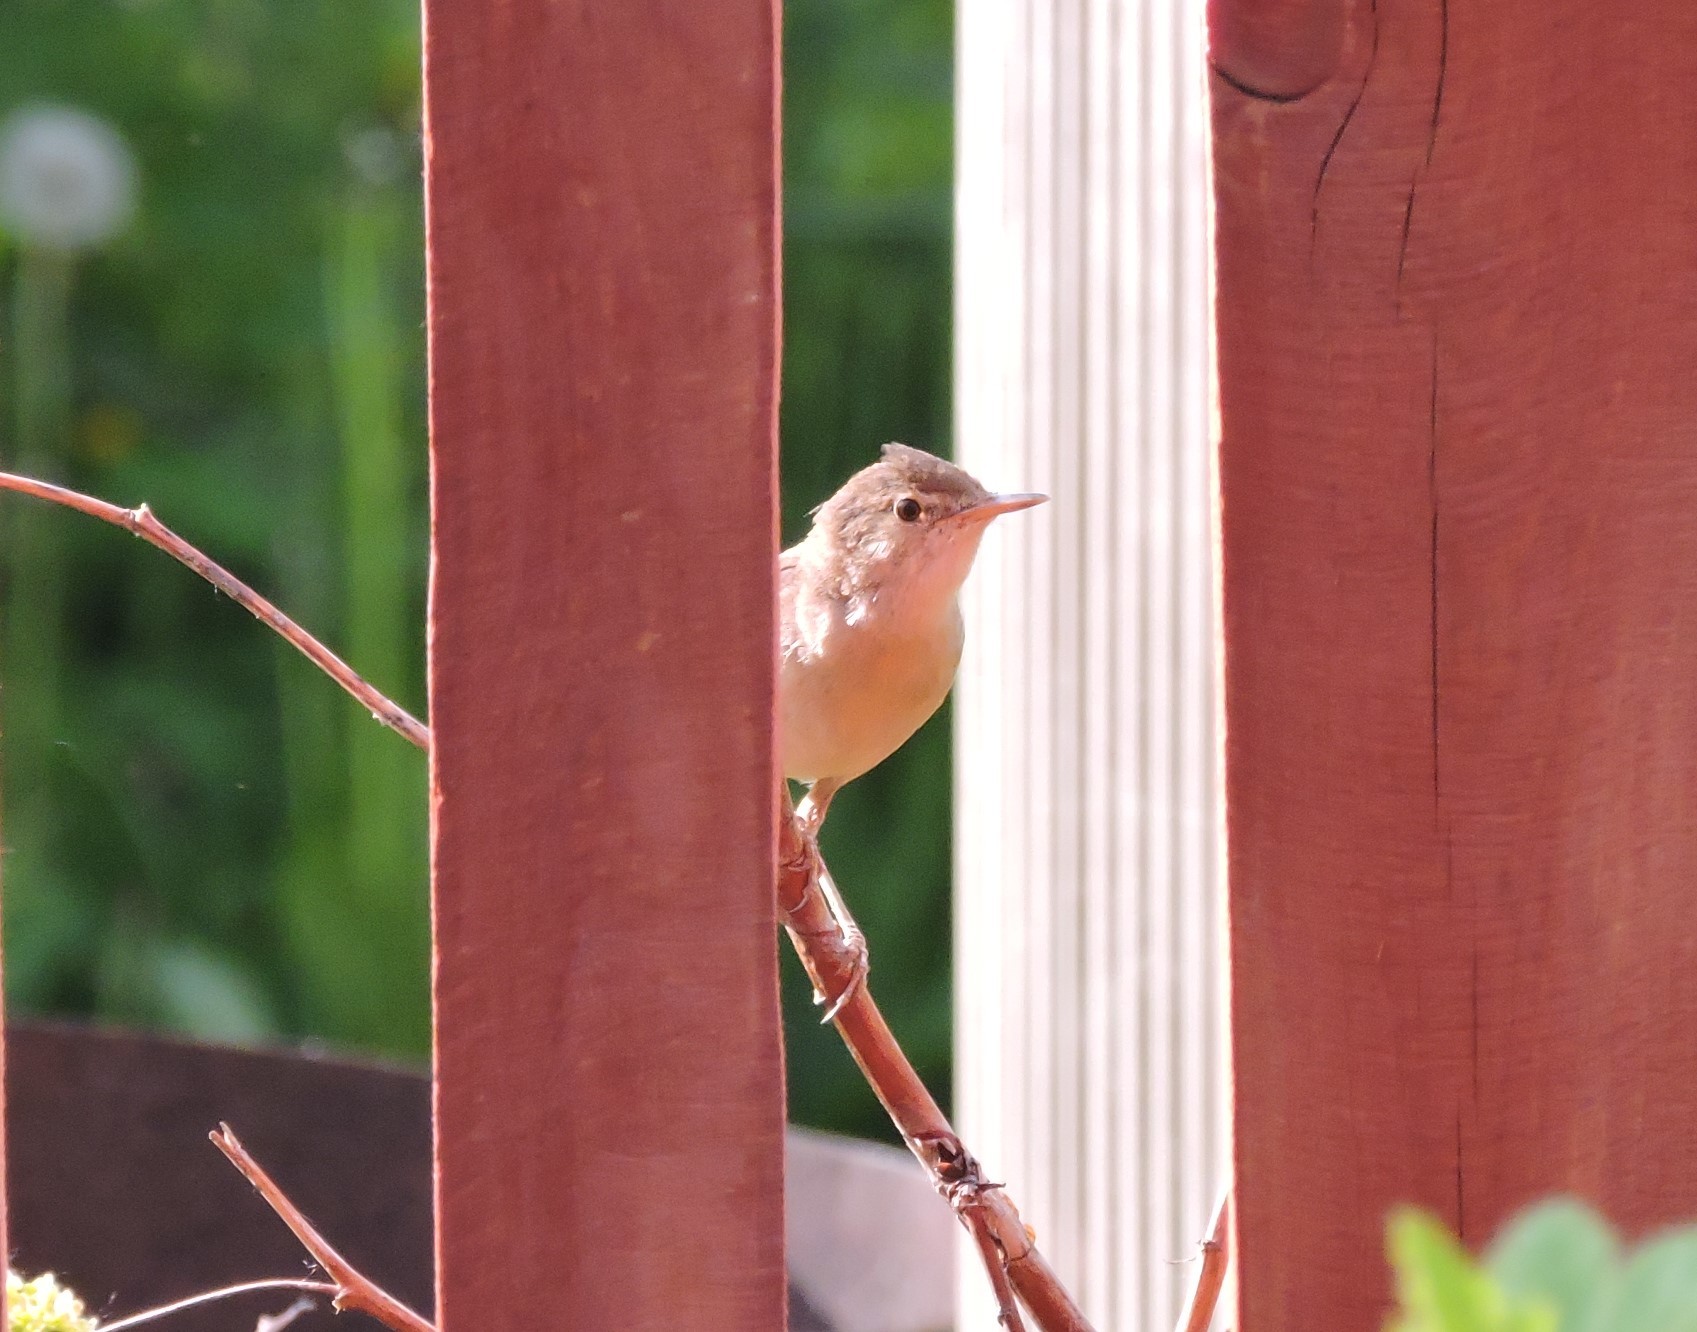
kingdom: Animalia
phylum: Chordata
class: Aves
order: Passeriformes
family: Acrocephalidae
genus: Acrocephalus
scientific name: Acrocephalus dumetorum
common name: Blyth's reed warbler
